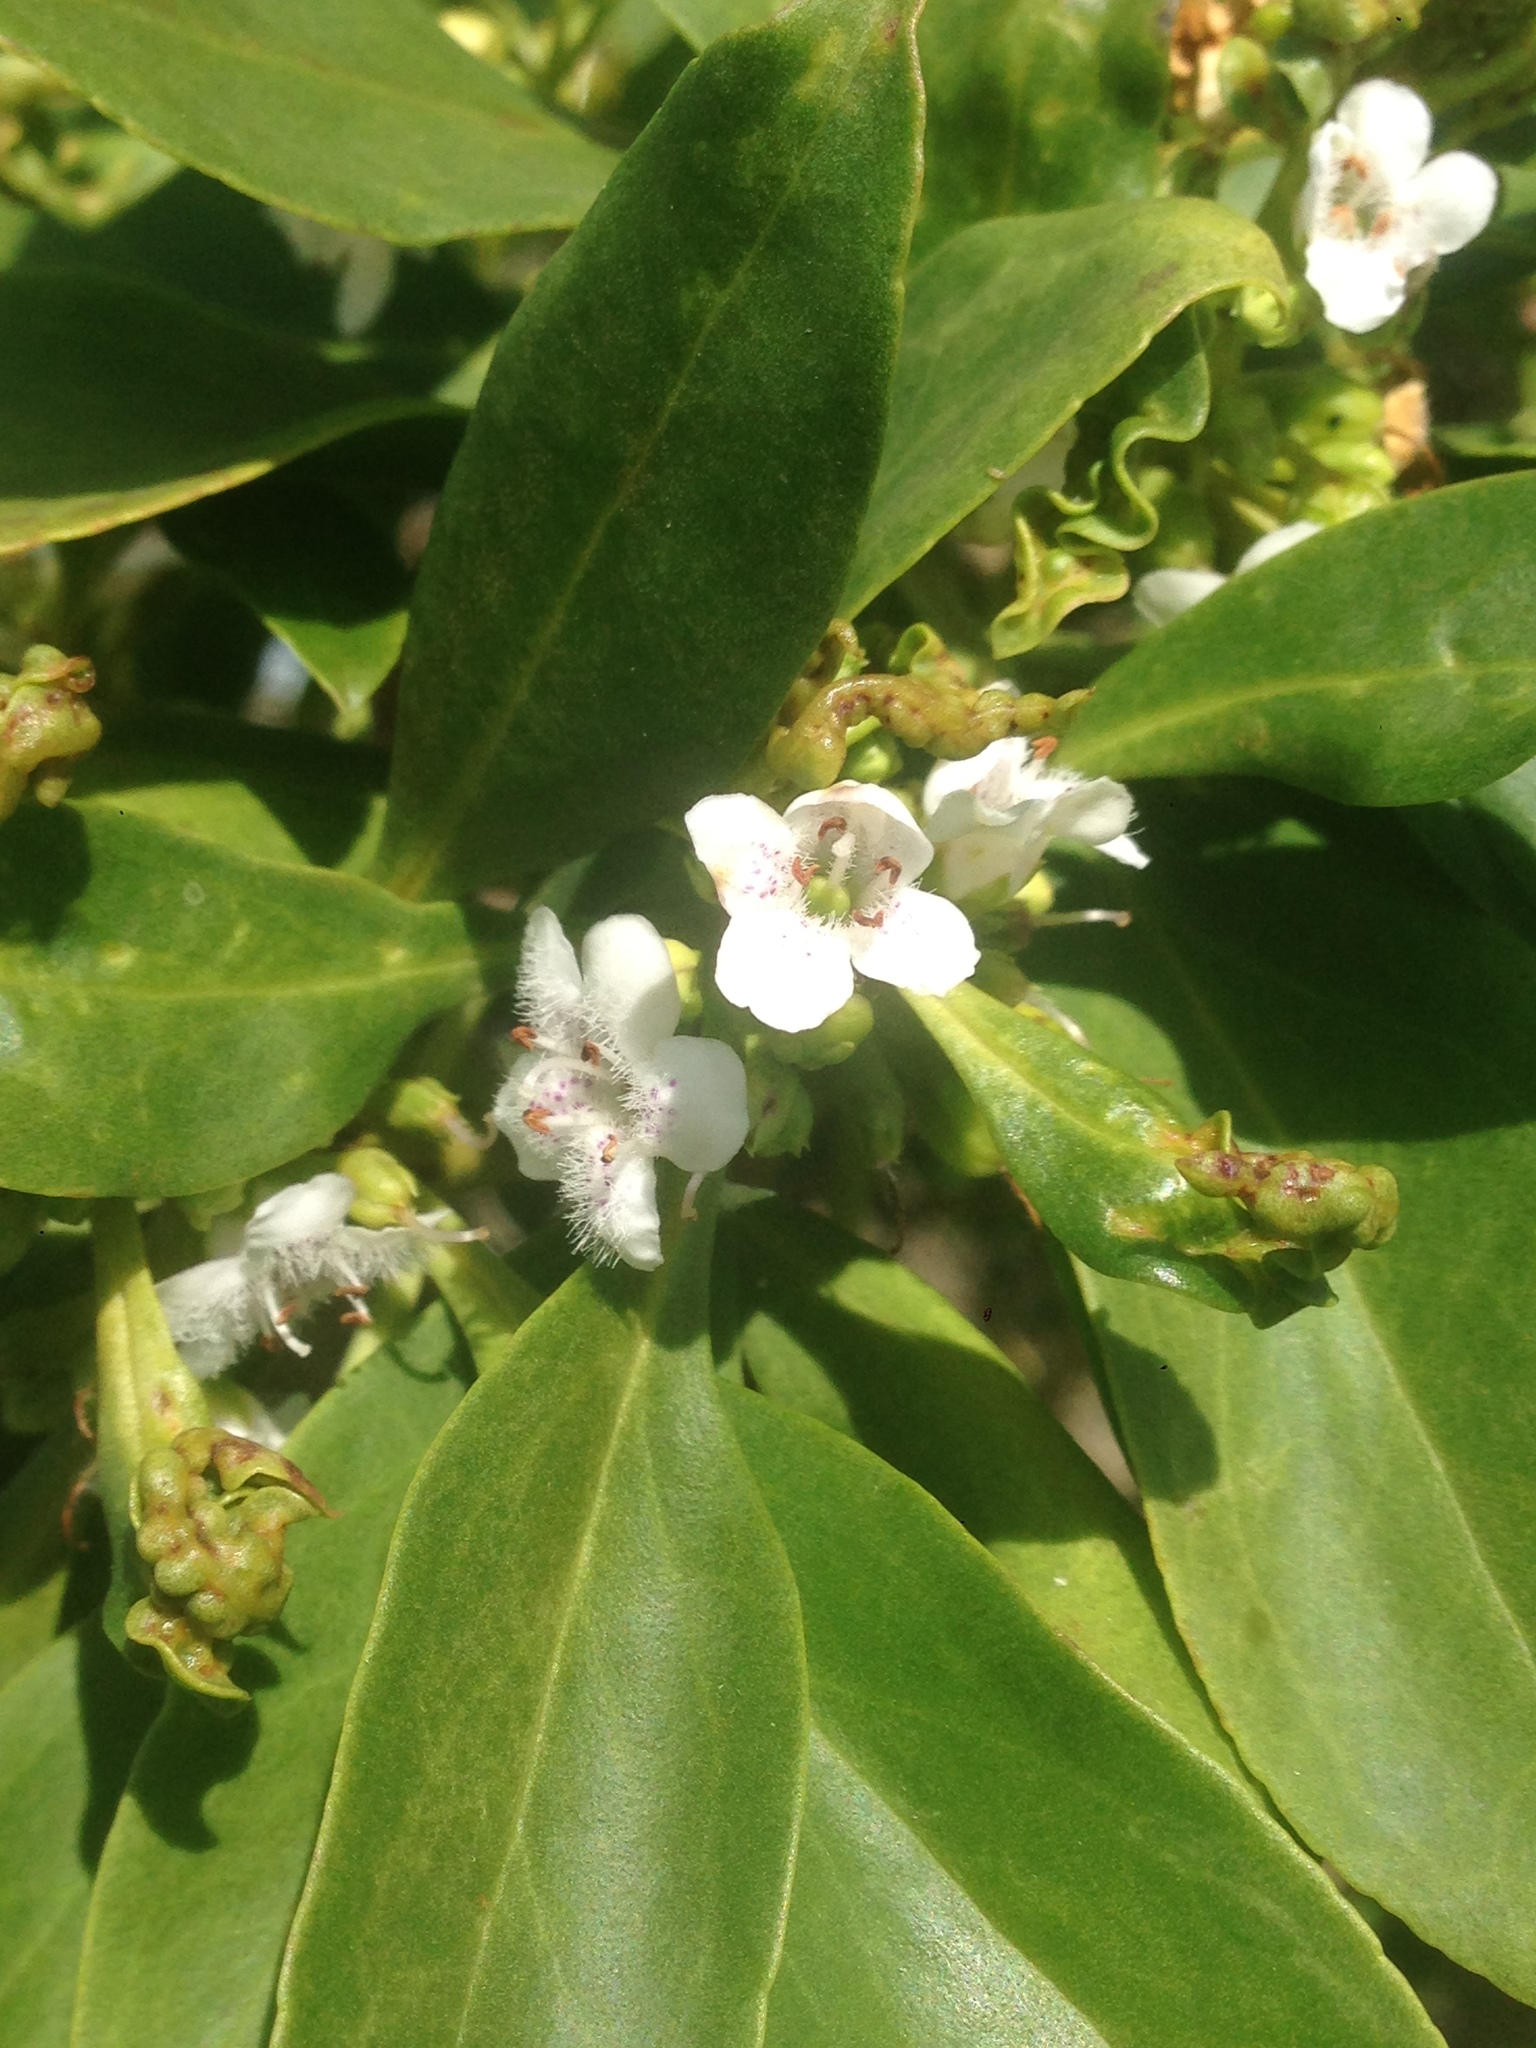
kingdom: Plantae
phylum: Tracheophyta
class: Magnoliopsida
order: Lamiales
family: Scrophulariaceae
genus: Myoporum
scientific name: Myoporum laetum
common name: Ngaio tree
